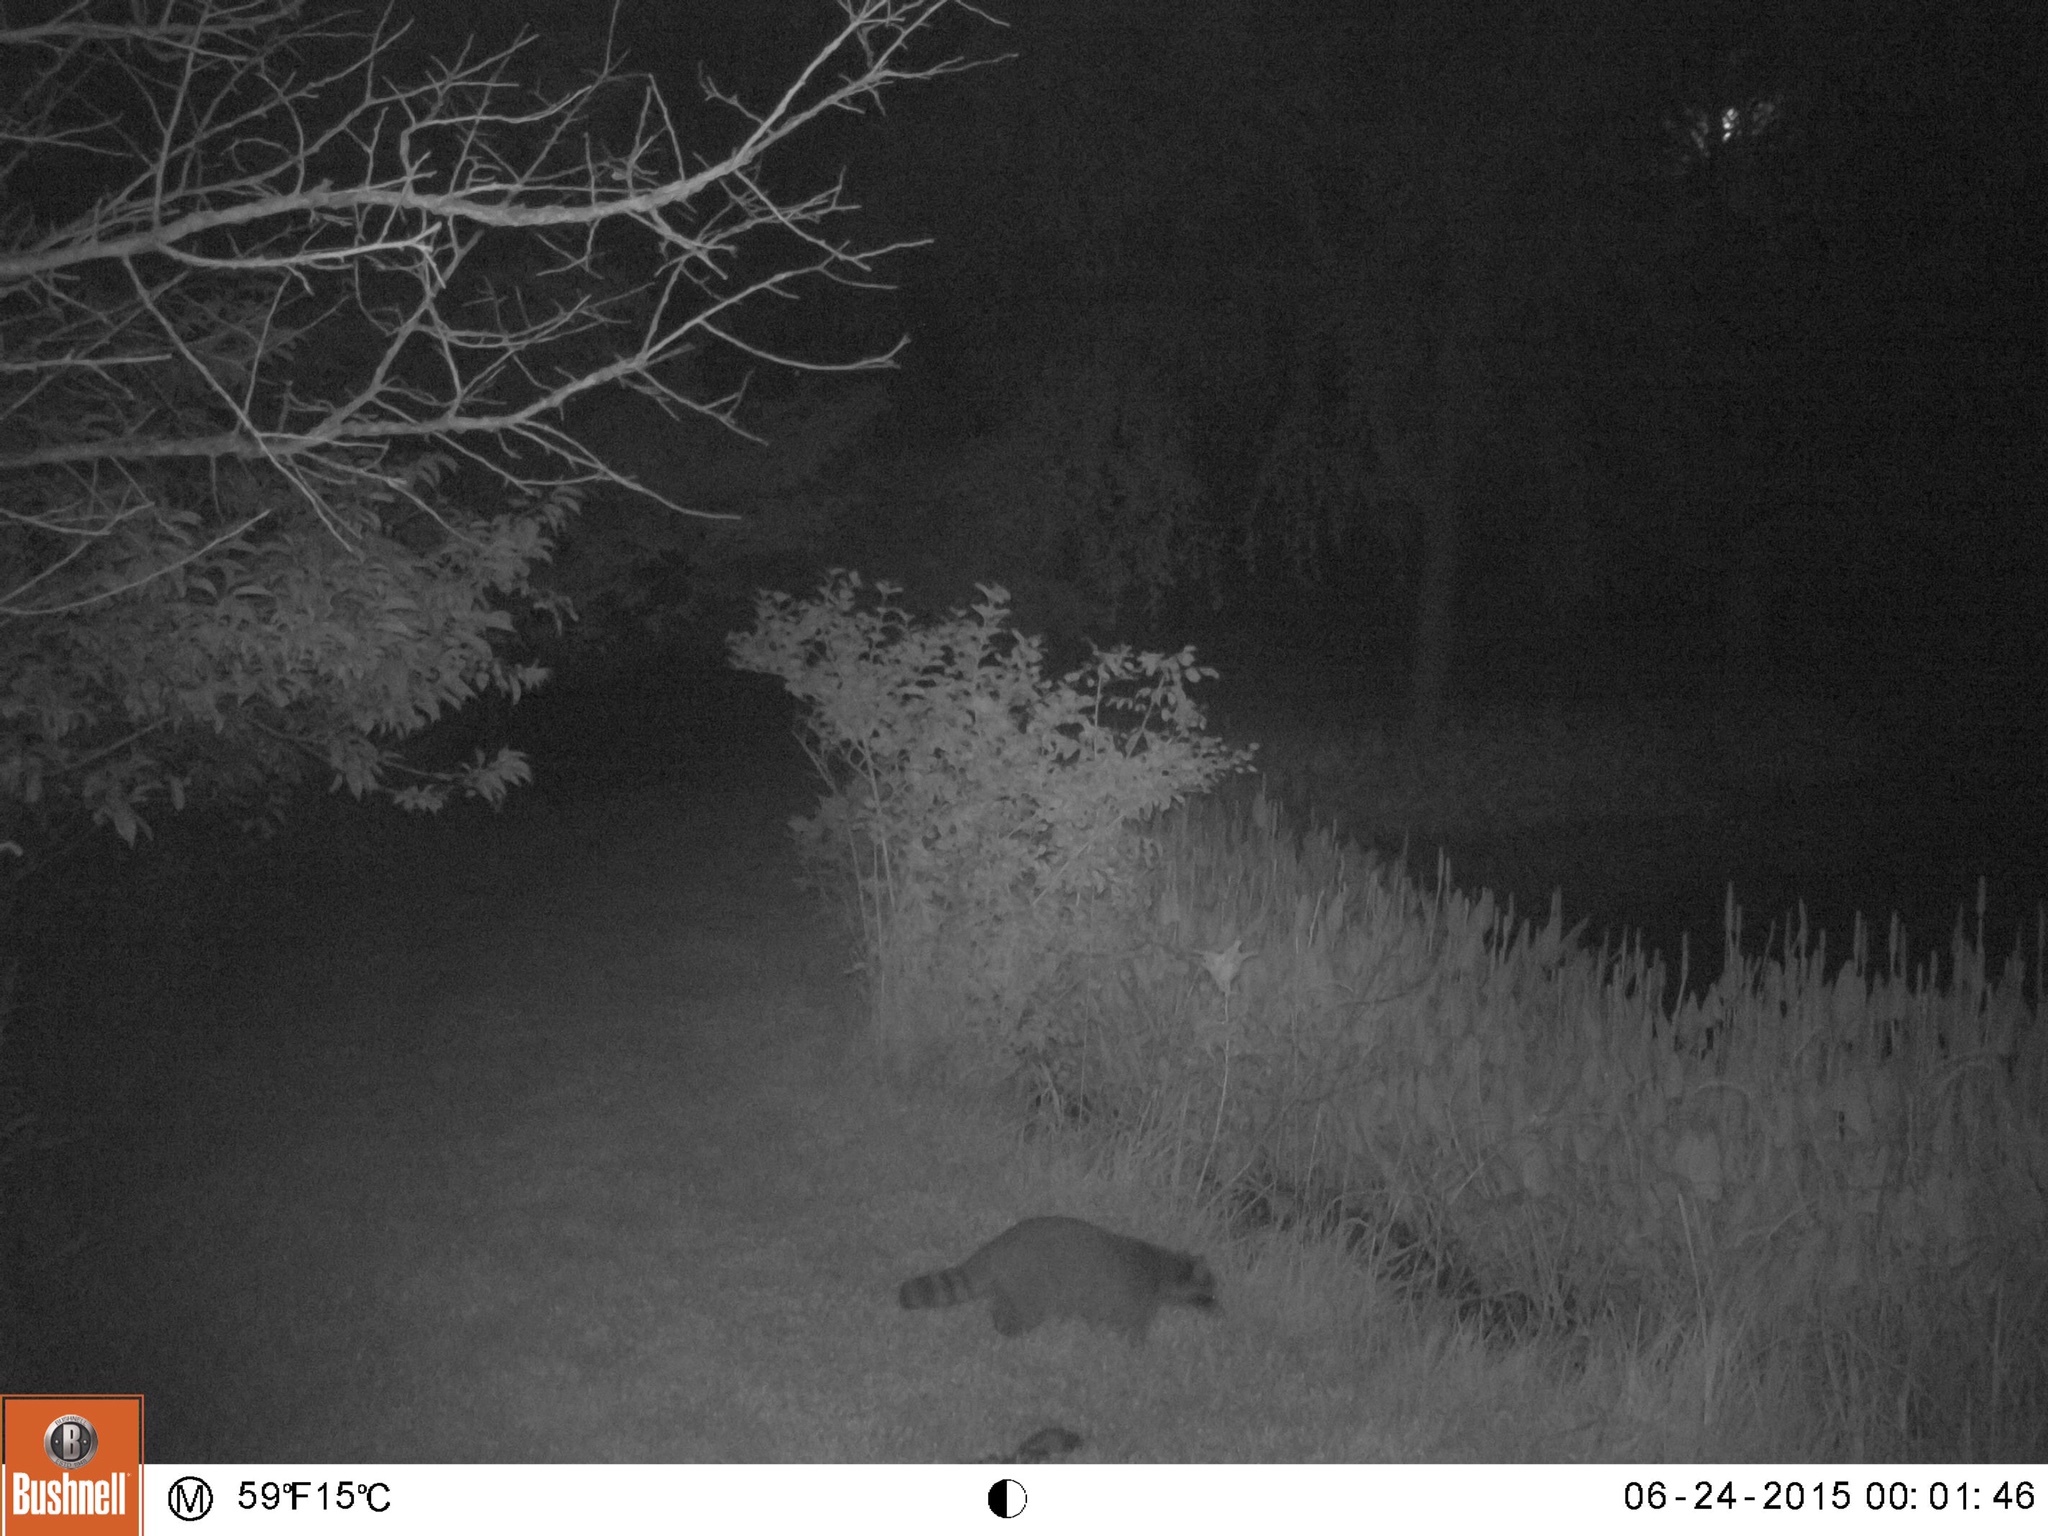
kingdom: Animalia
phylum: Chordata
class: Mammalia
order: Carnivora
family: Procyonidae
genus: Procyon
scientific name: Procyon lotor
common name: Raccoon
